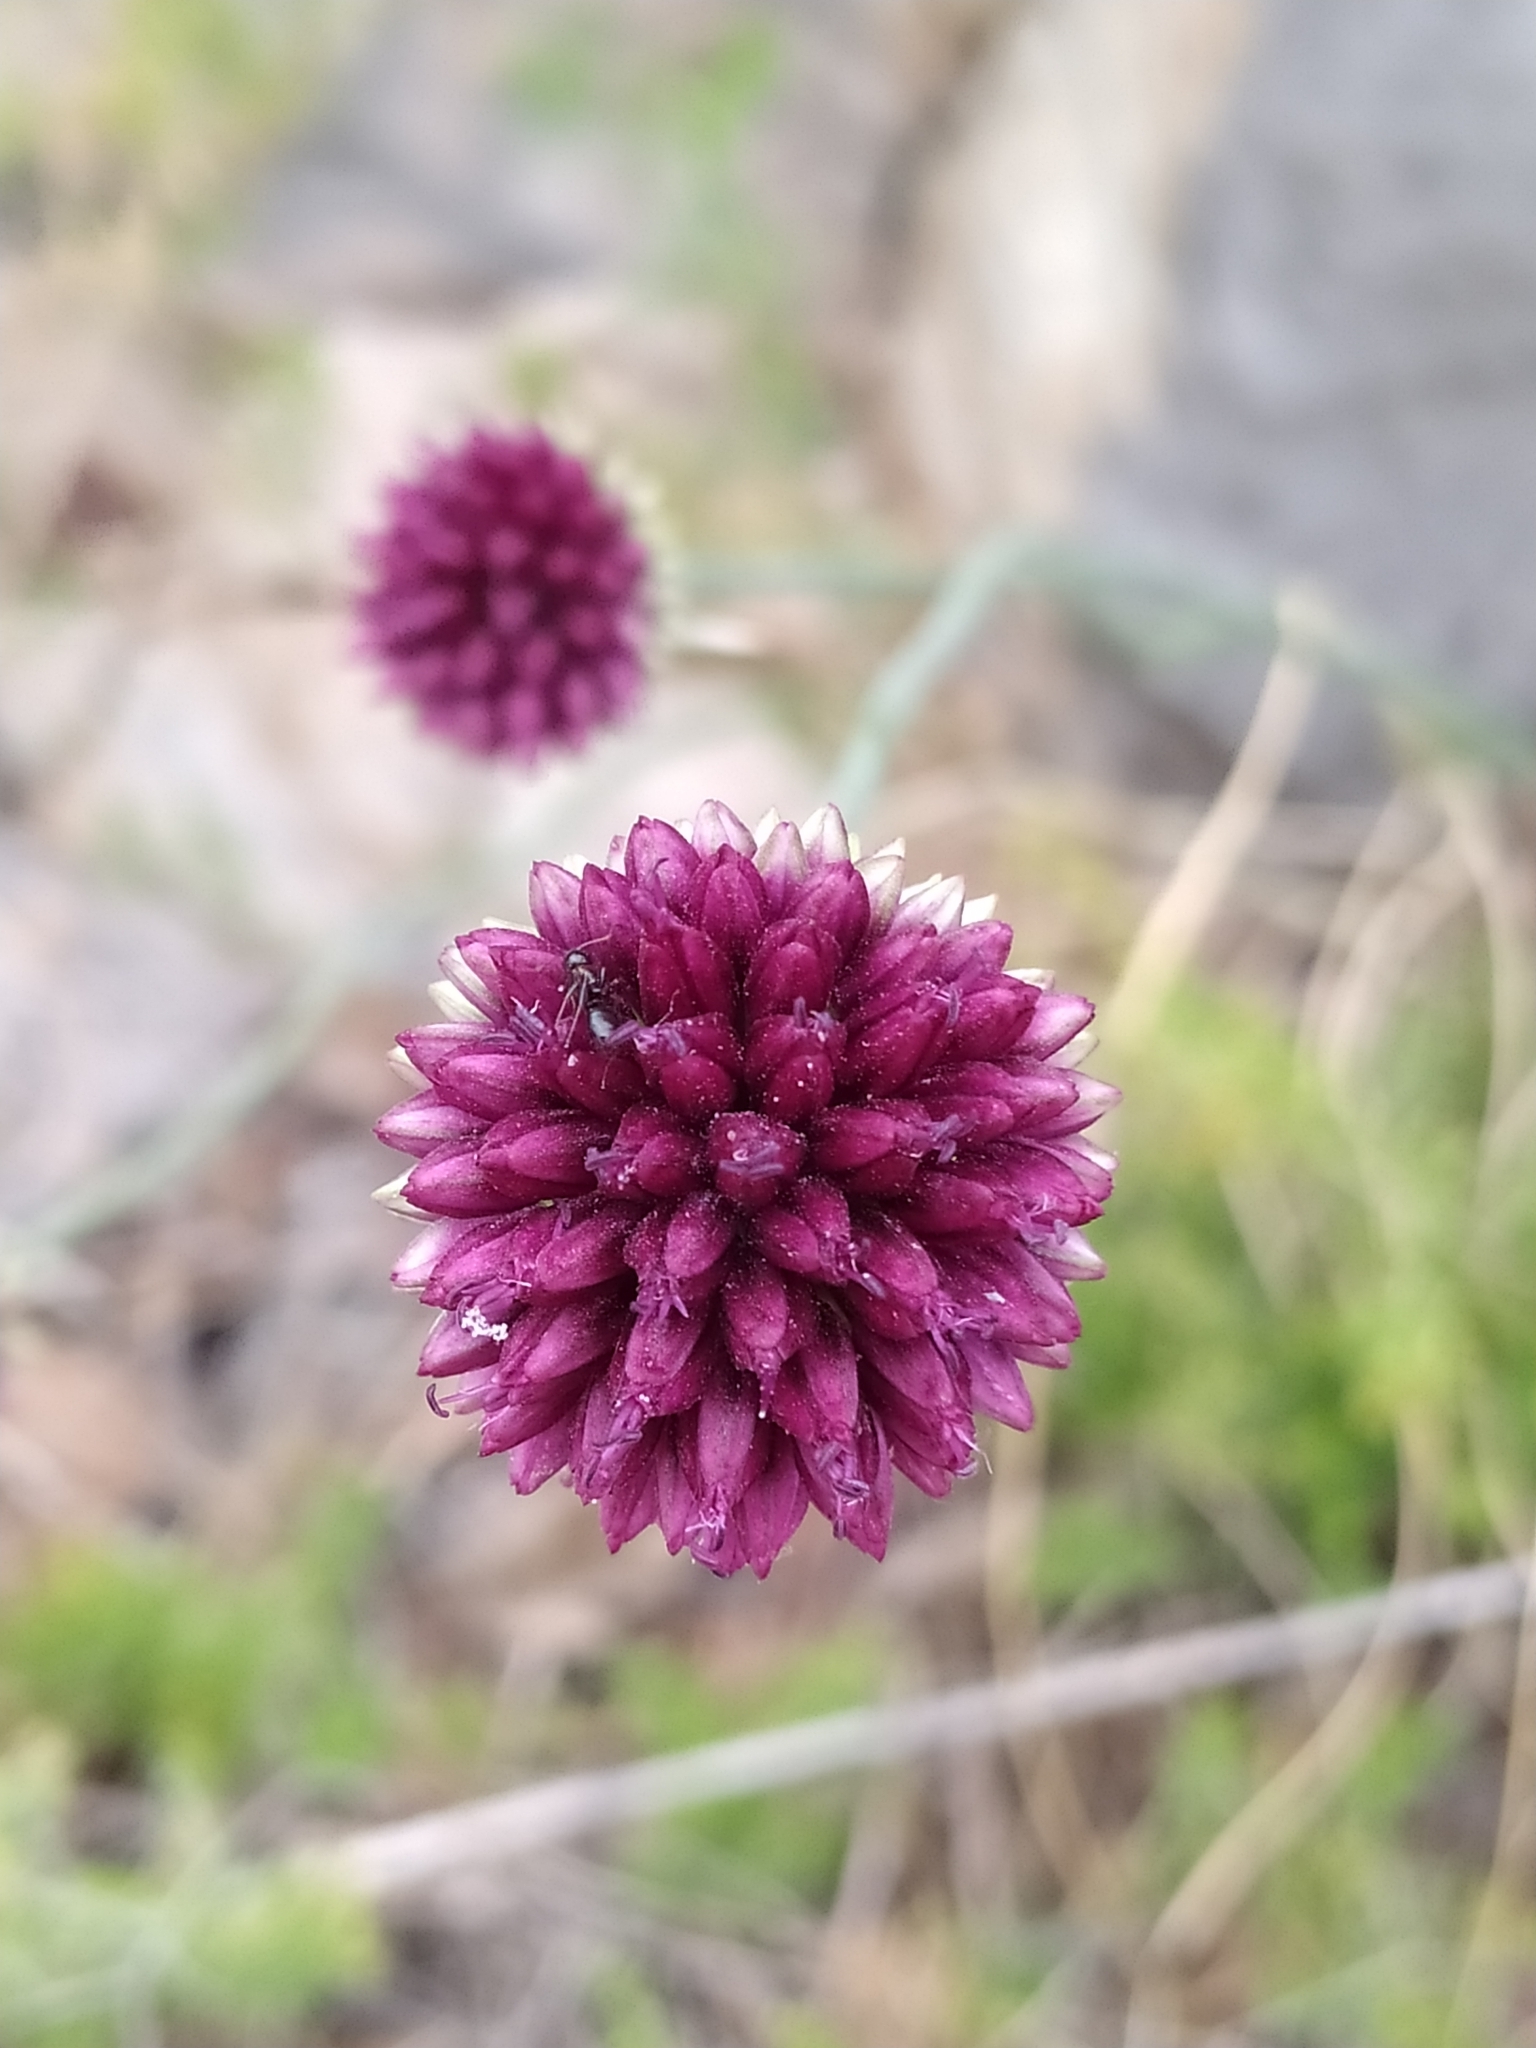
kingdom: Plantae
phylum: Tracheophyta
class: Liliopsida
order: Asparagales
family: Amaryllidaceae
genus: Allium
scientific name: Allium sphaerocephalon
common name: Round-headed leek
